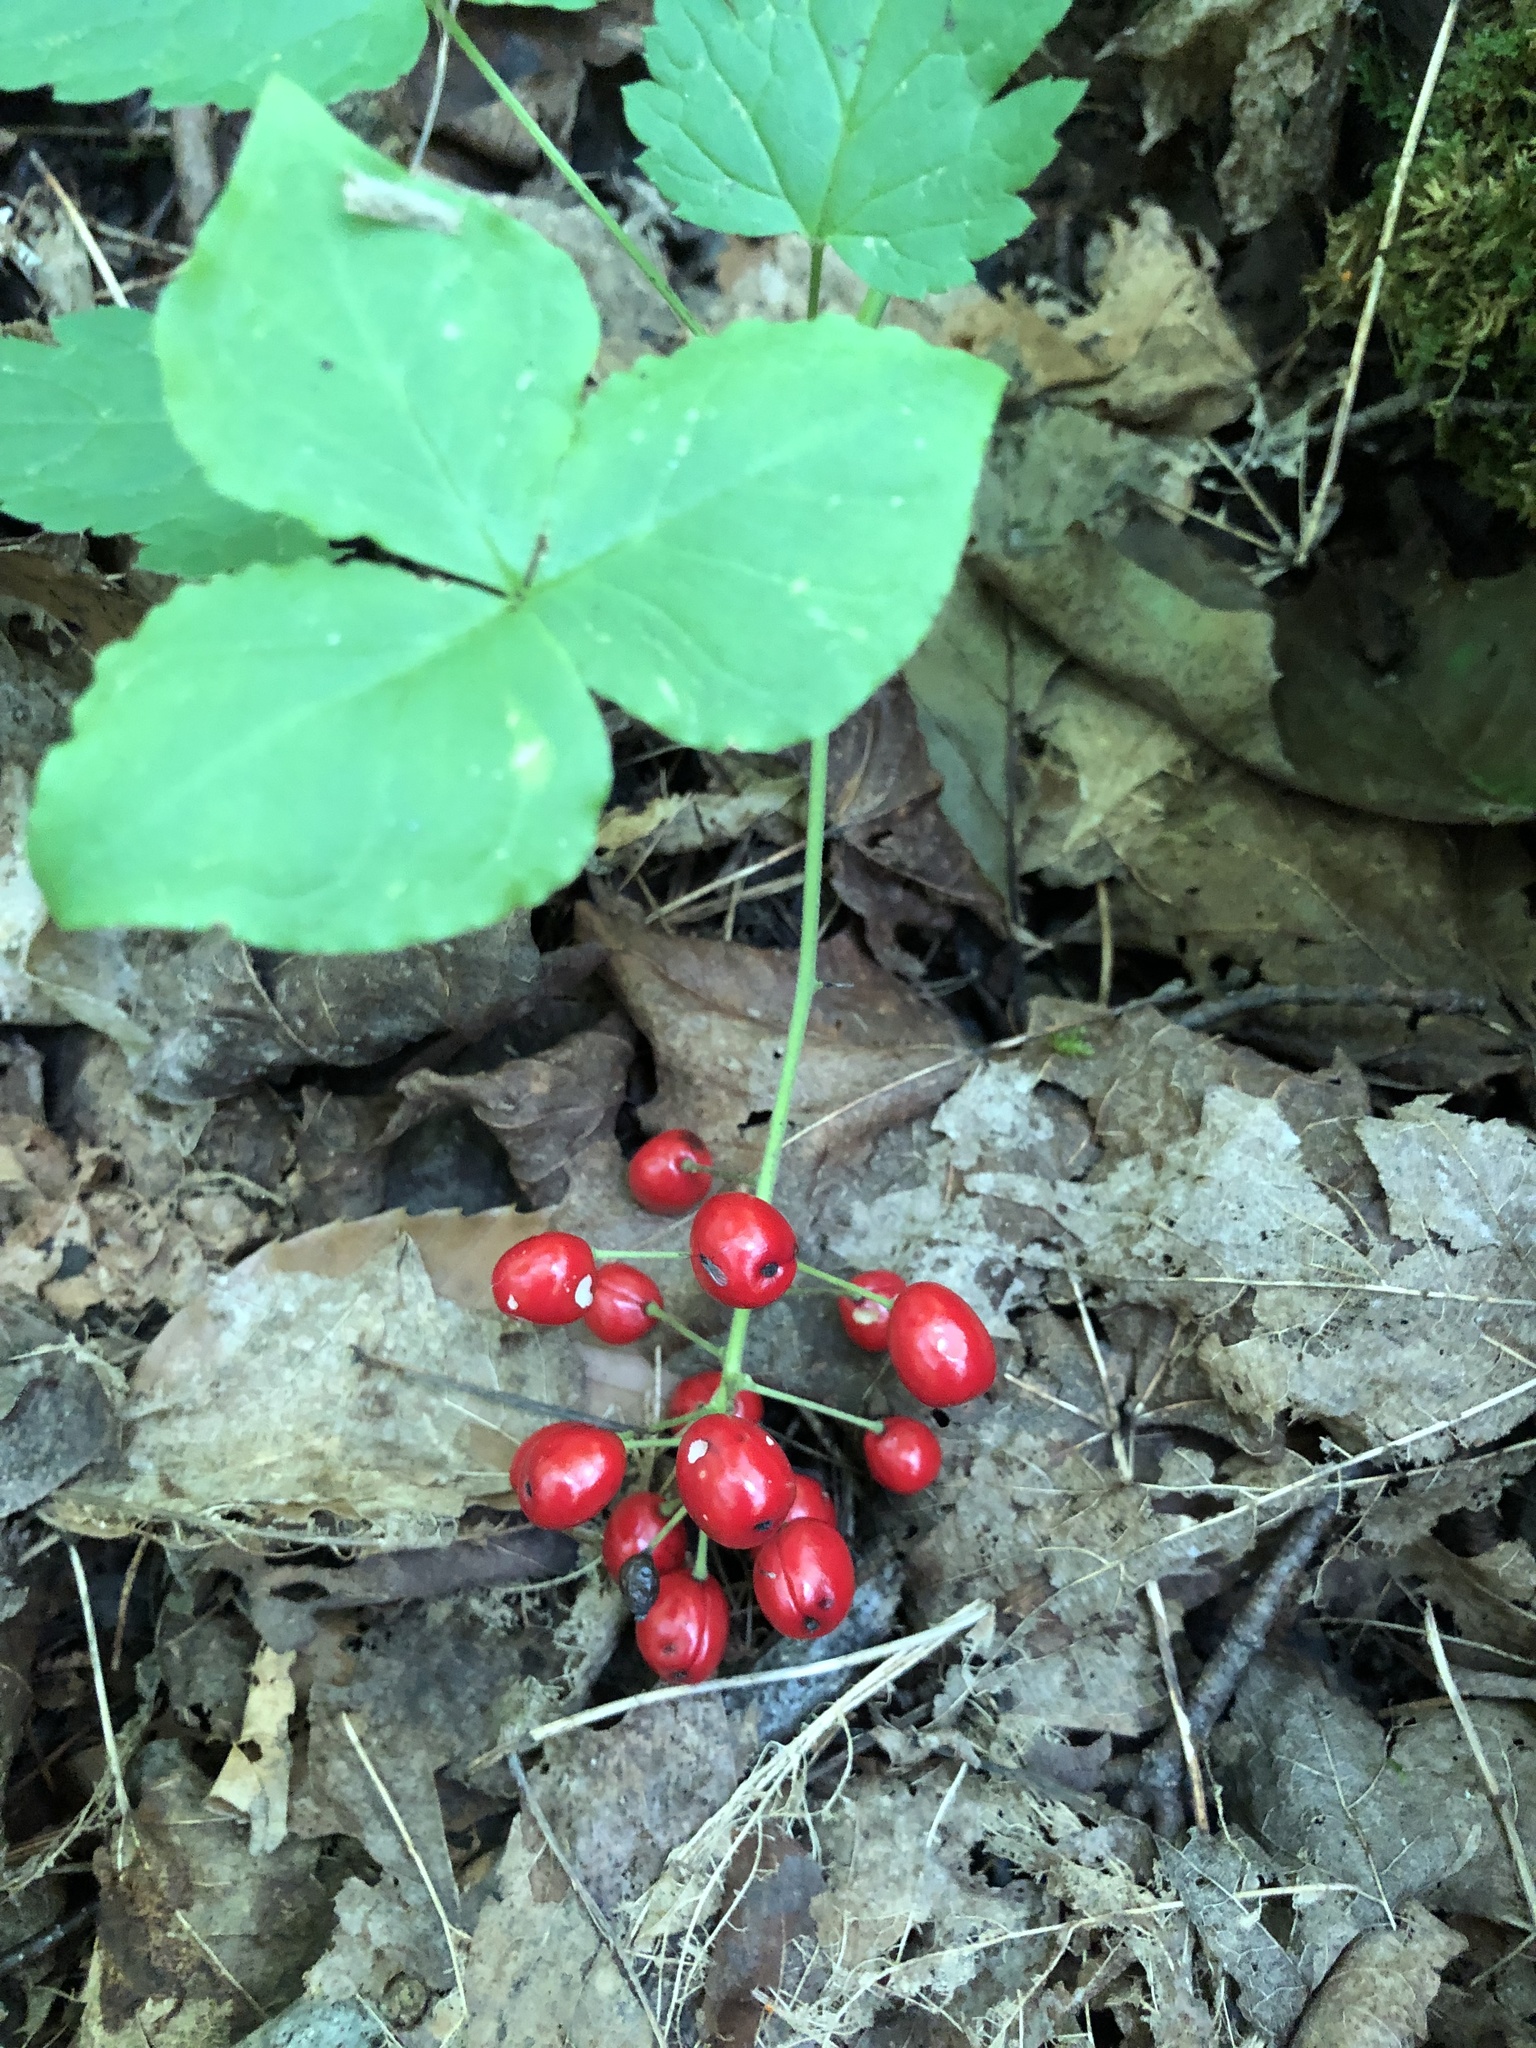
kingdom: Plantae
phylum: Tracheophyta
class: Magnoliopsida
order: Ranunculales
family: Ranunculaceae
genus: Actaea
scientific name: Actaea rubra
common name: Red baneberry
